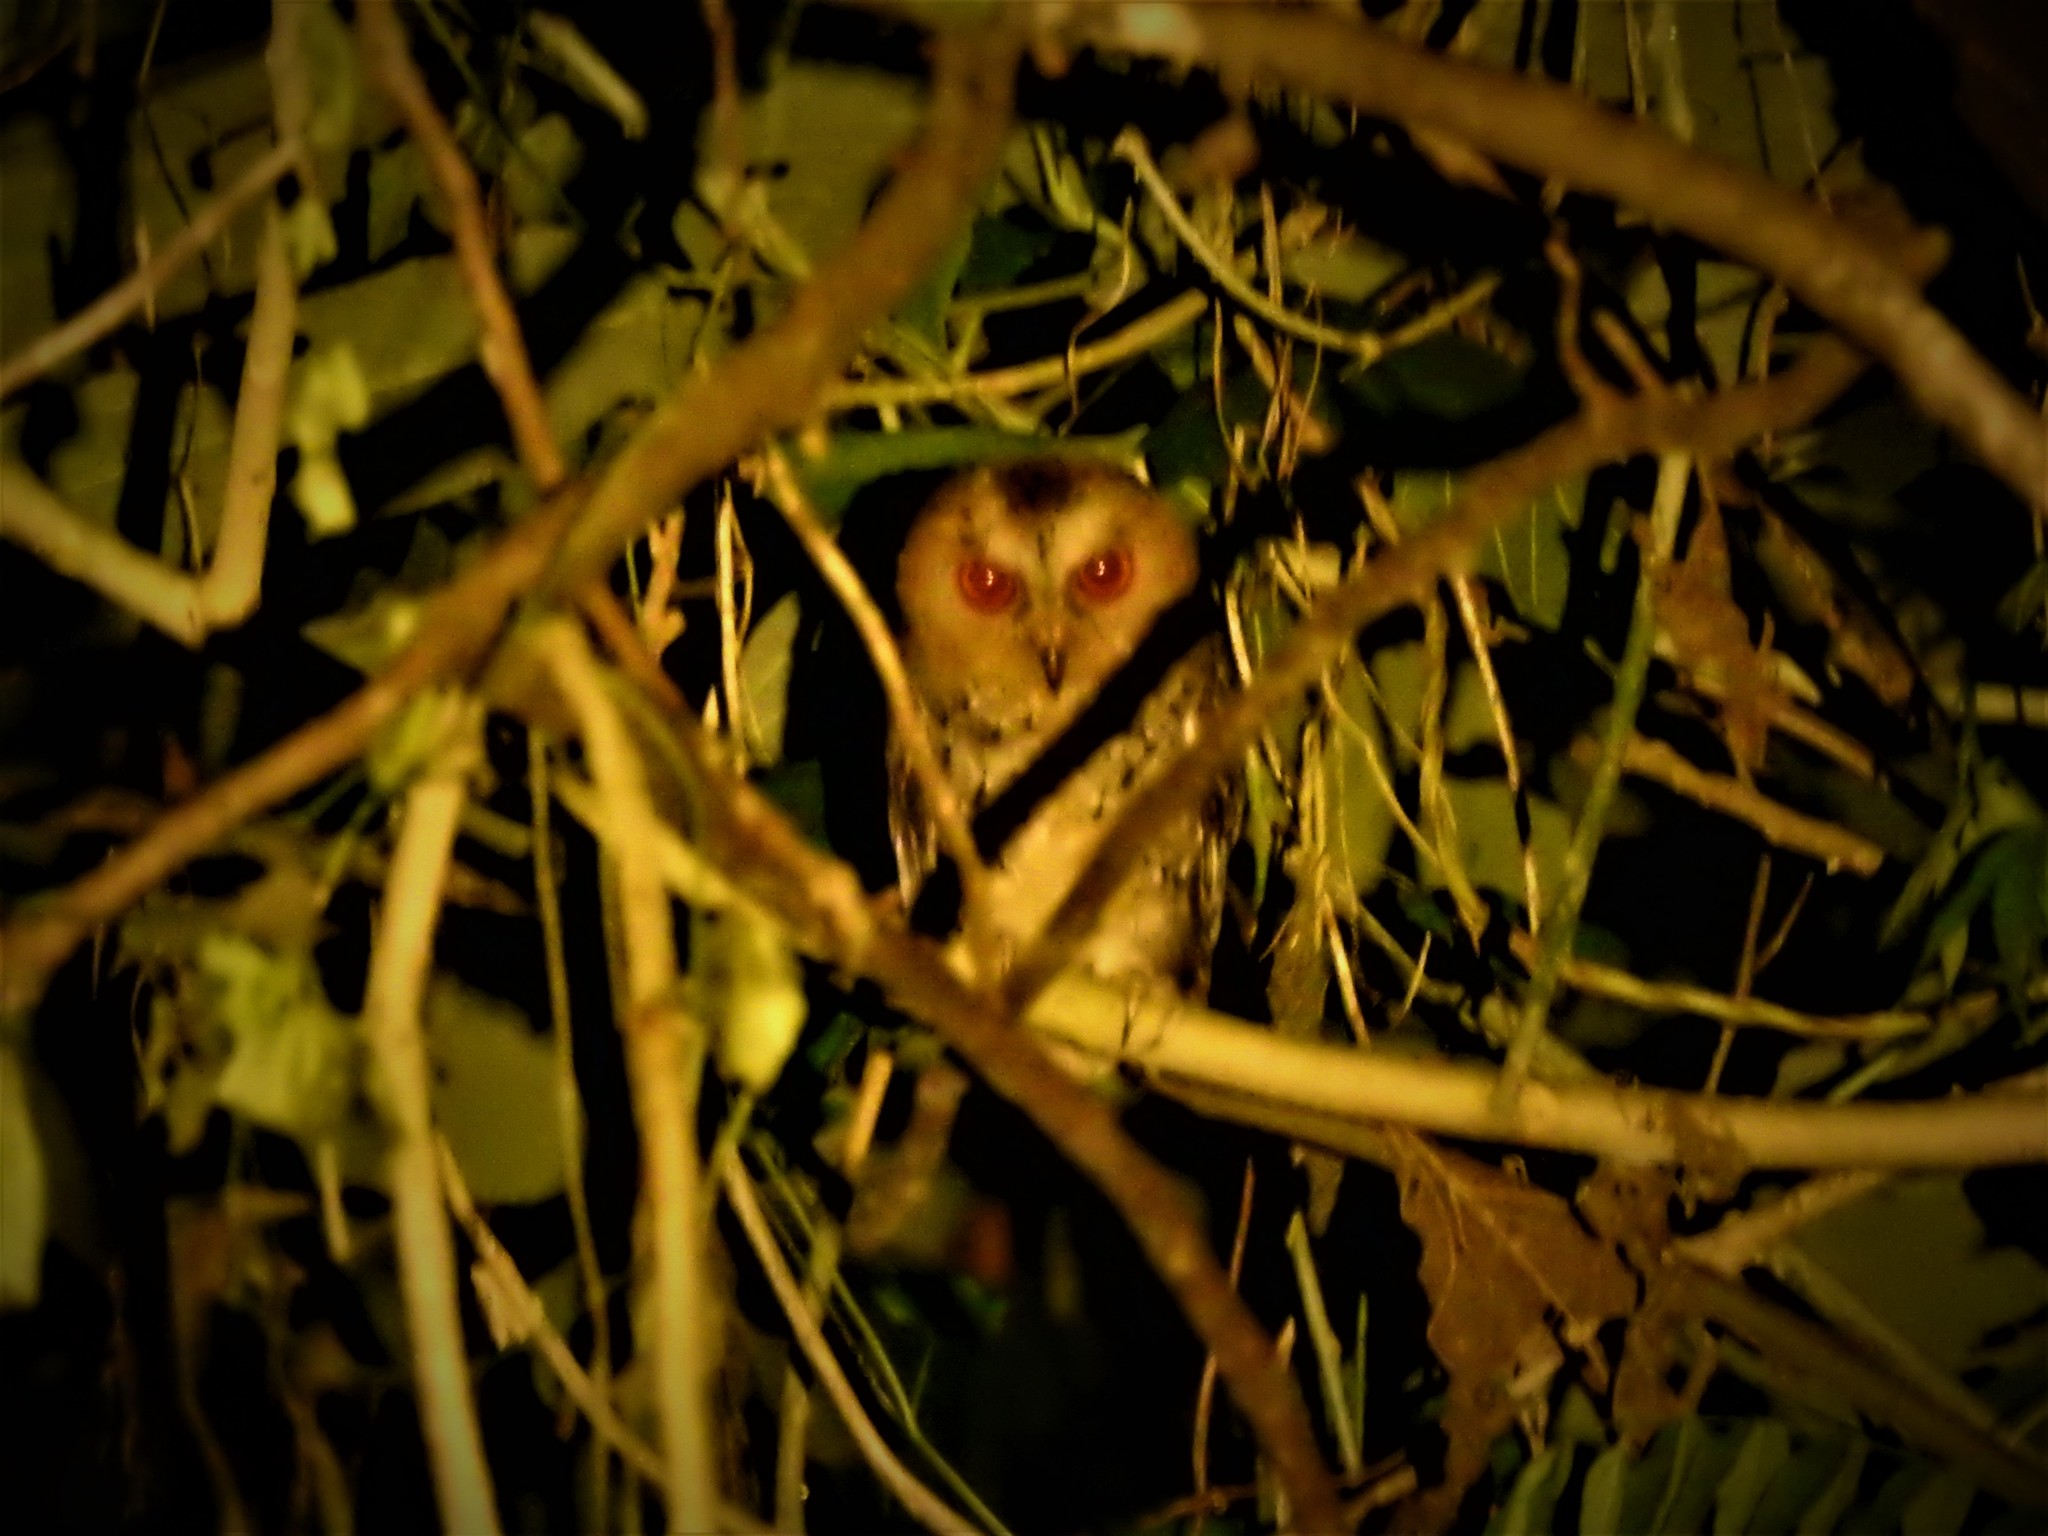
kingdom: Animalia
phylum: Chordata
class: Aves
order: Strigiformes
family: Strigidae
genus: Otus
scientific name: Otus megalotis
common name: Philippine scops owl
